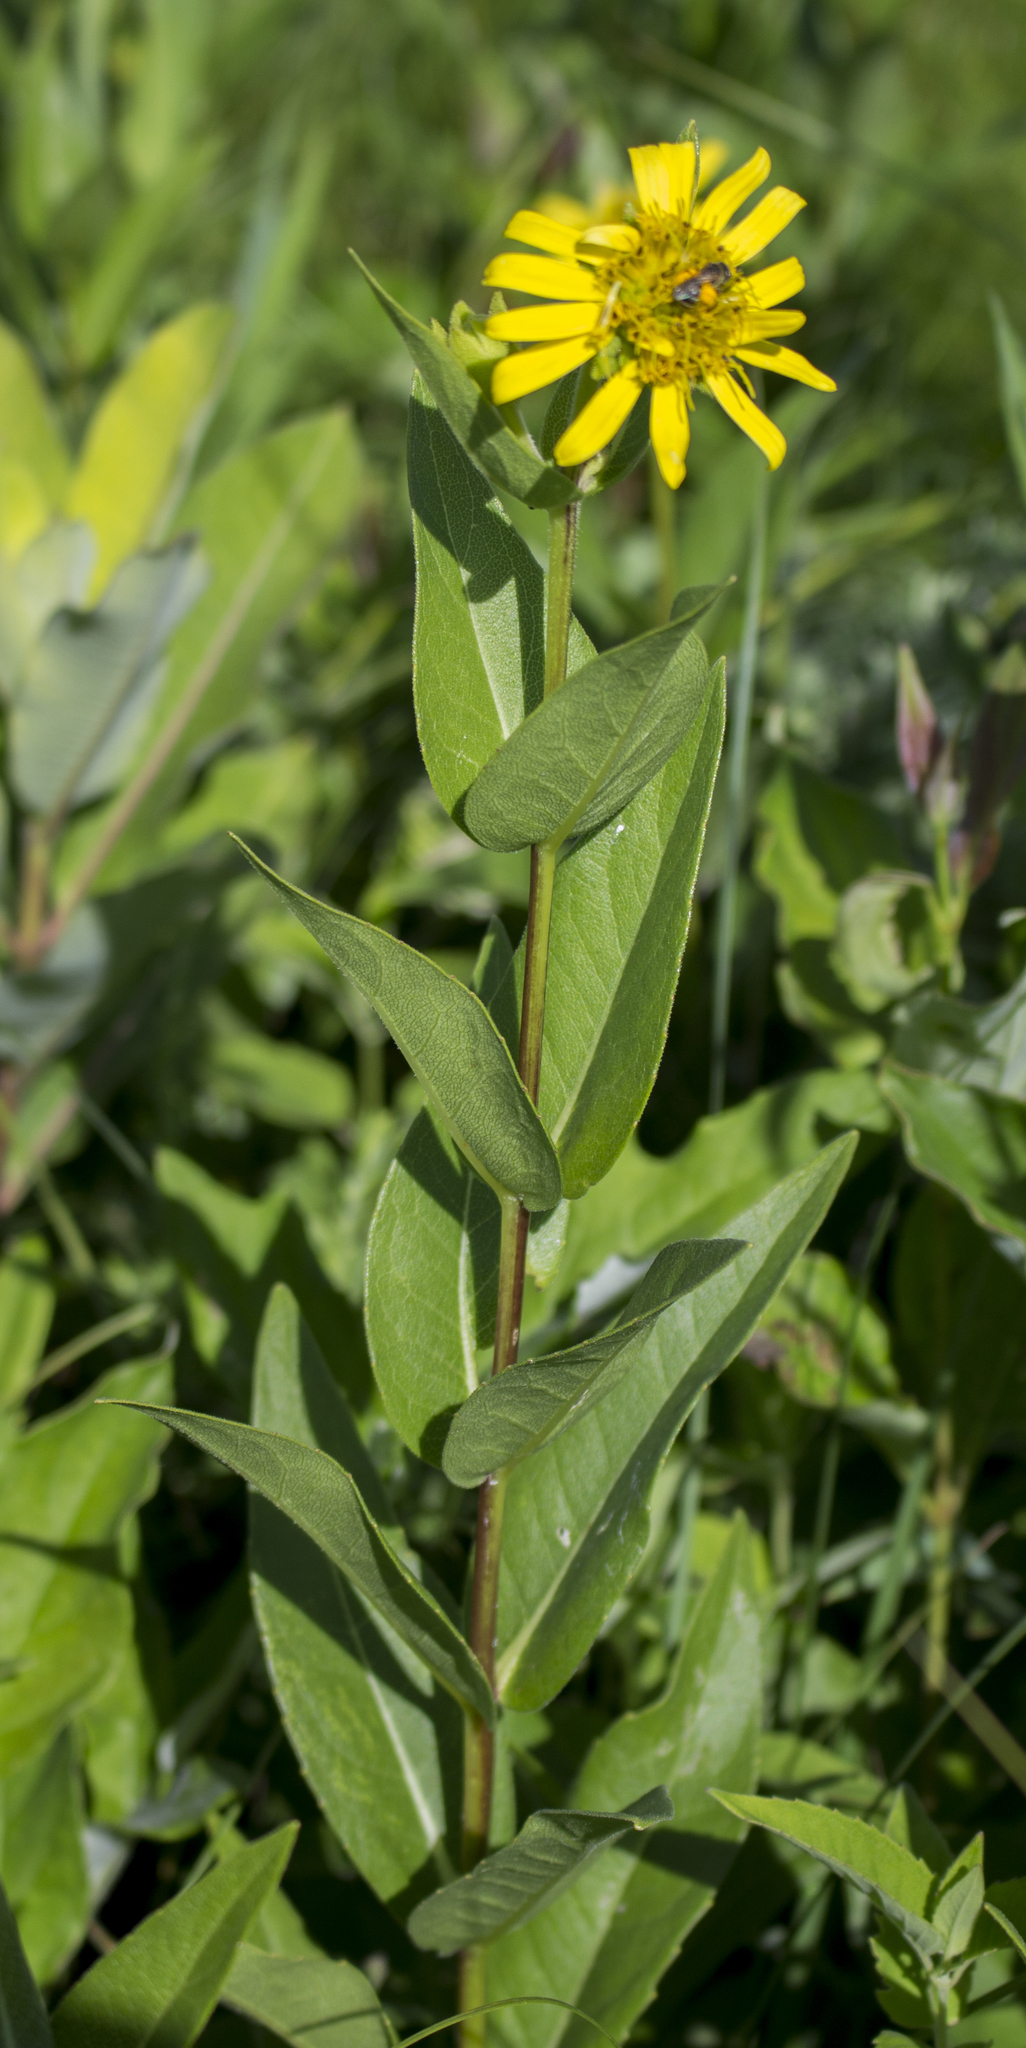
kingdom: Plantae
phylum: Tracheophyta
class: Magnoliopsida
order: Asterales
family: Asteraceae
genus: Silphium
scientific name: Silphium integrifolium
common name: Whole-leaf rosinweed
